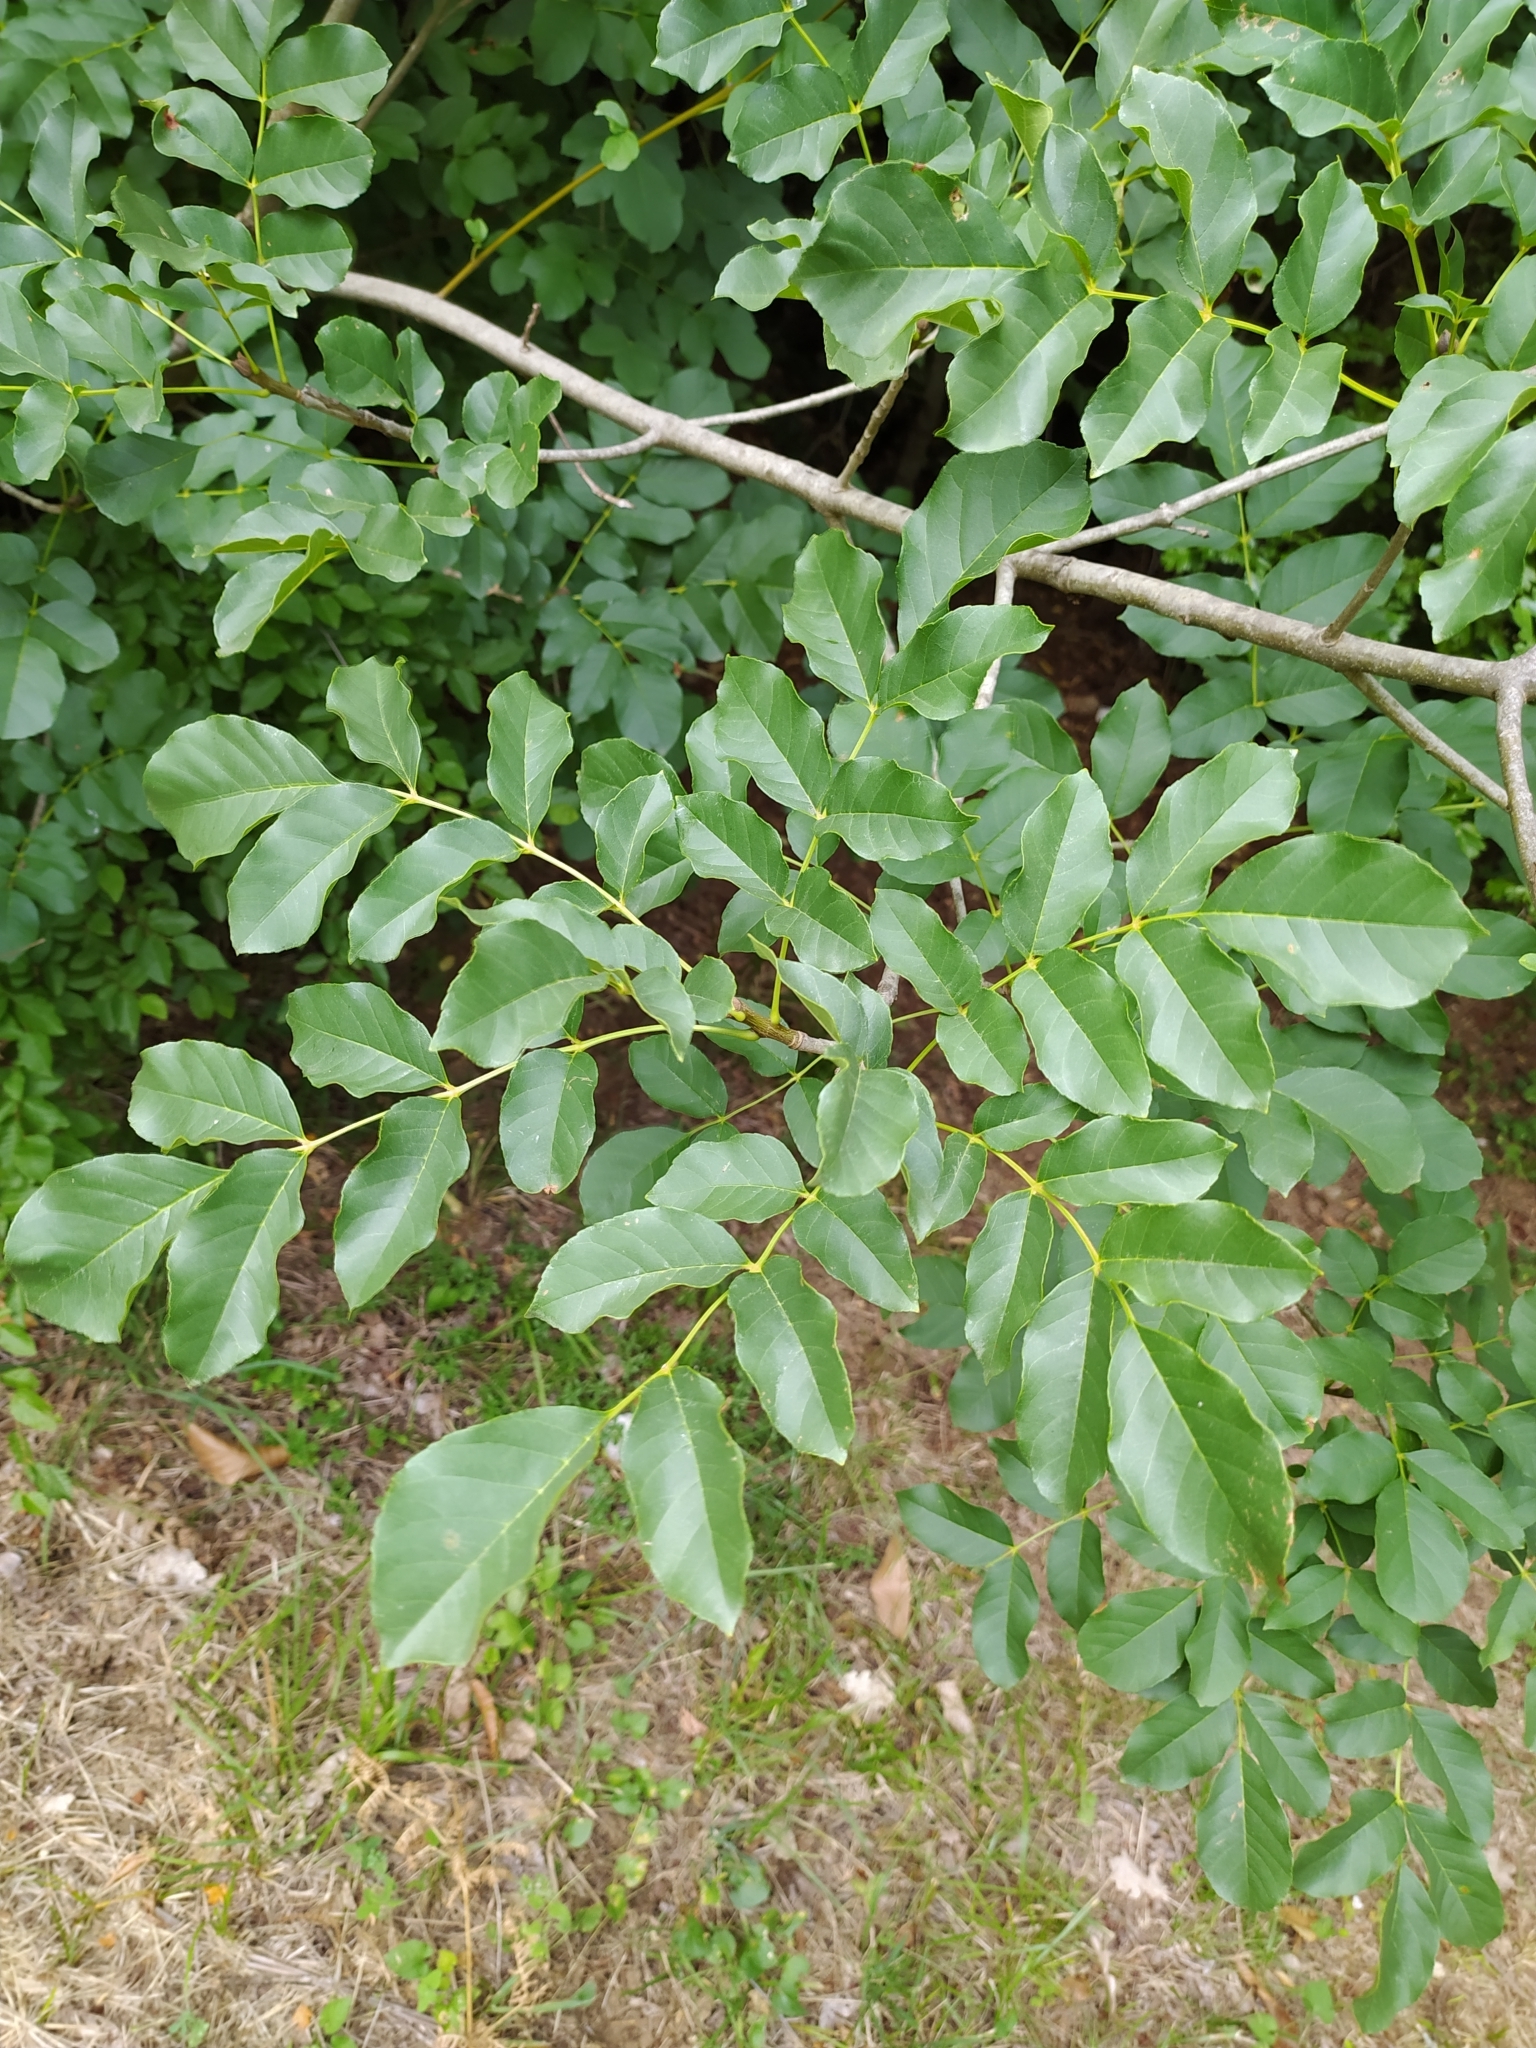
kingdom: Plantae
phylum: Tracheophyta
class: Magnoliopsida
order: Lamiales
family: Oleaceae
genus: Fraxinus
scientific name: Fraxinus ornus
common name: Manna ash
